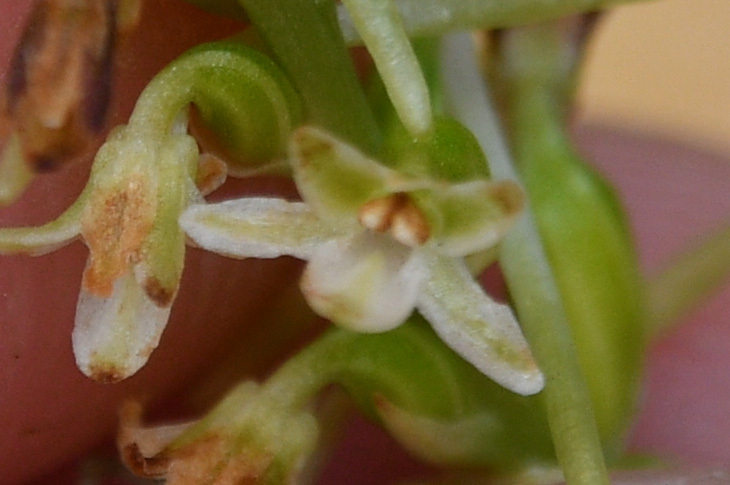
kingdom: Plantae
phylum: Tracheophyta
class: Liliopsida
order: Asparagales
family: Orchidaceae
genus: Platanthera
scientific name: Platanthera transversa
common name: Royal rein orchid
